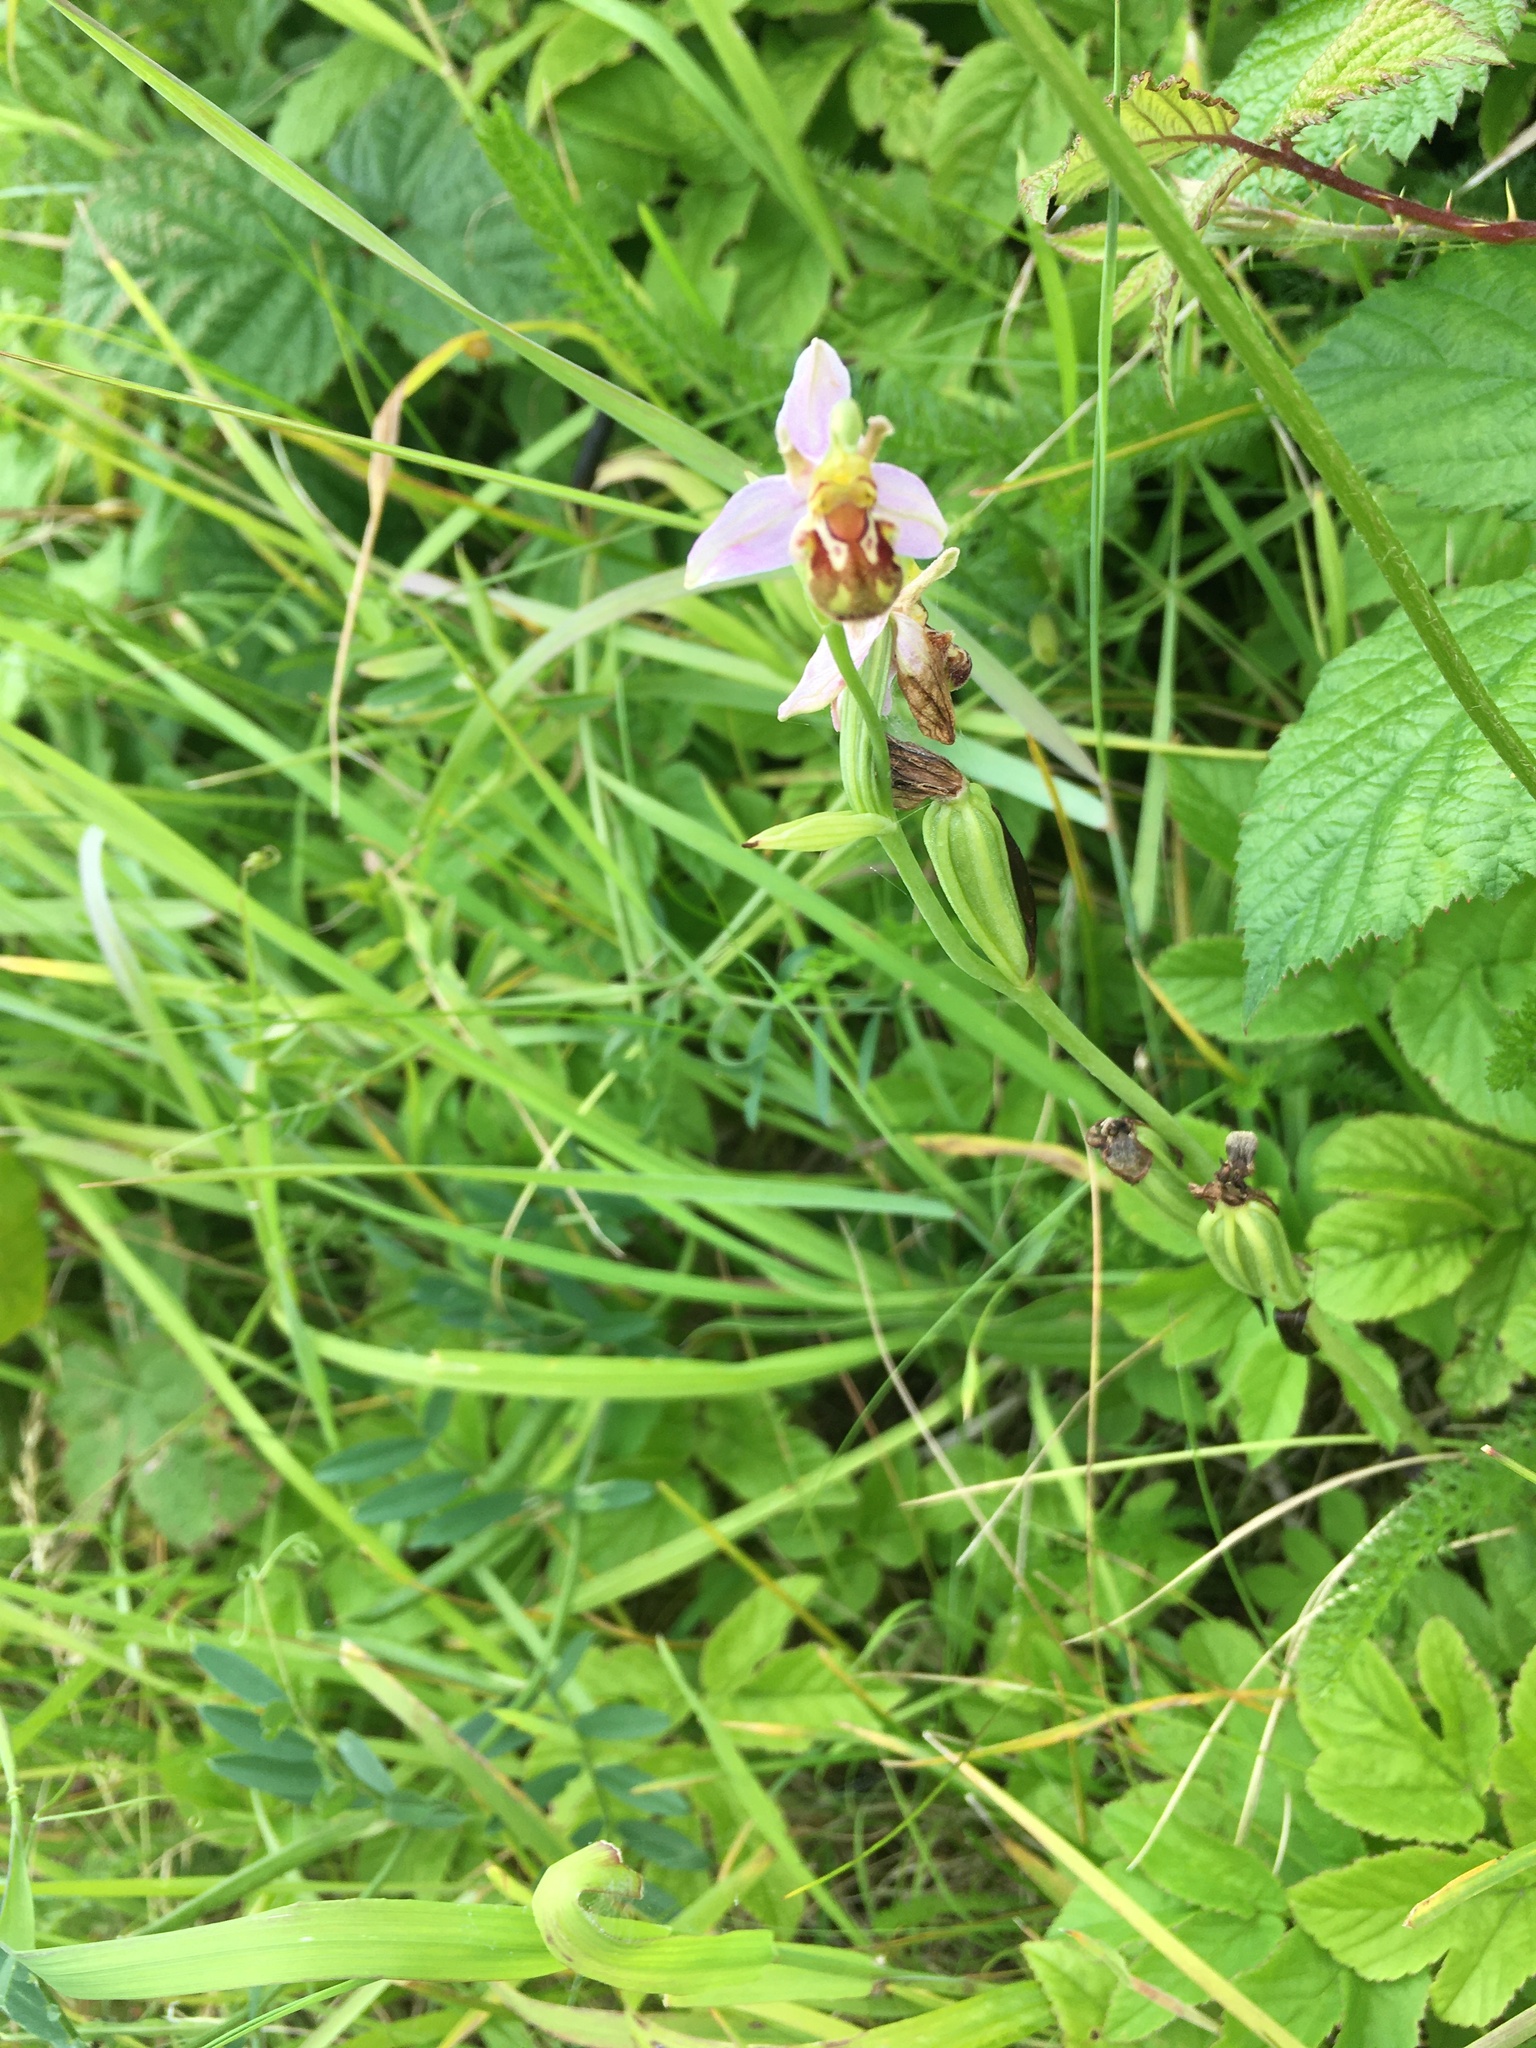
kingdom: Plantae
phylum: Tracheophyta
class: Liliopsida
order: Asparagales
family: Orchidaceae
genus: Ophrys
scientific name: Ophrys apifera
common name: Bee orchid
